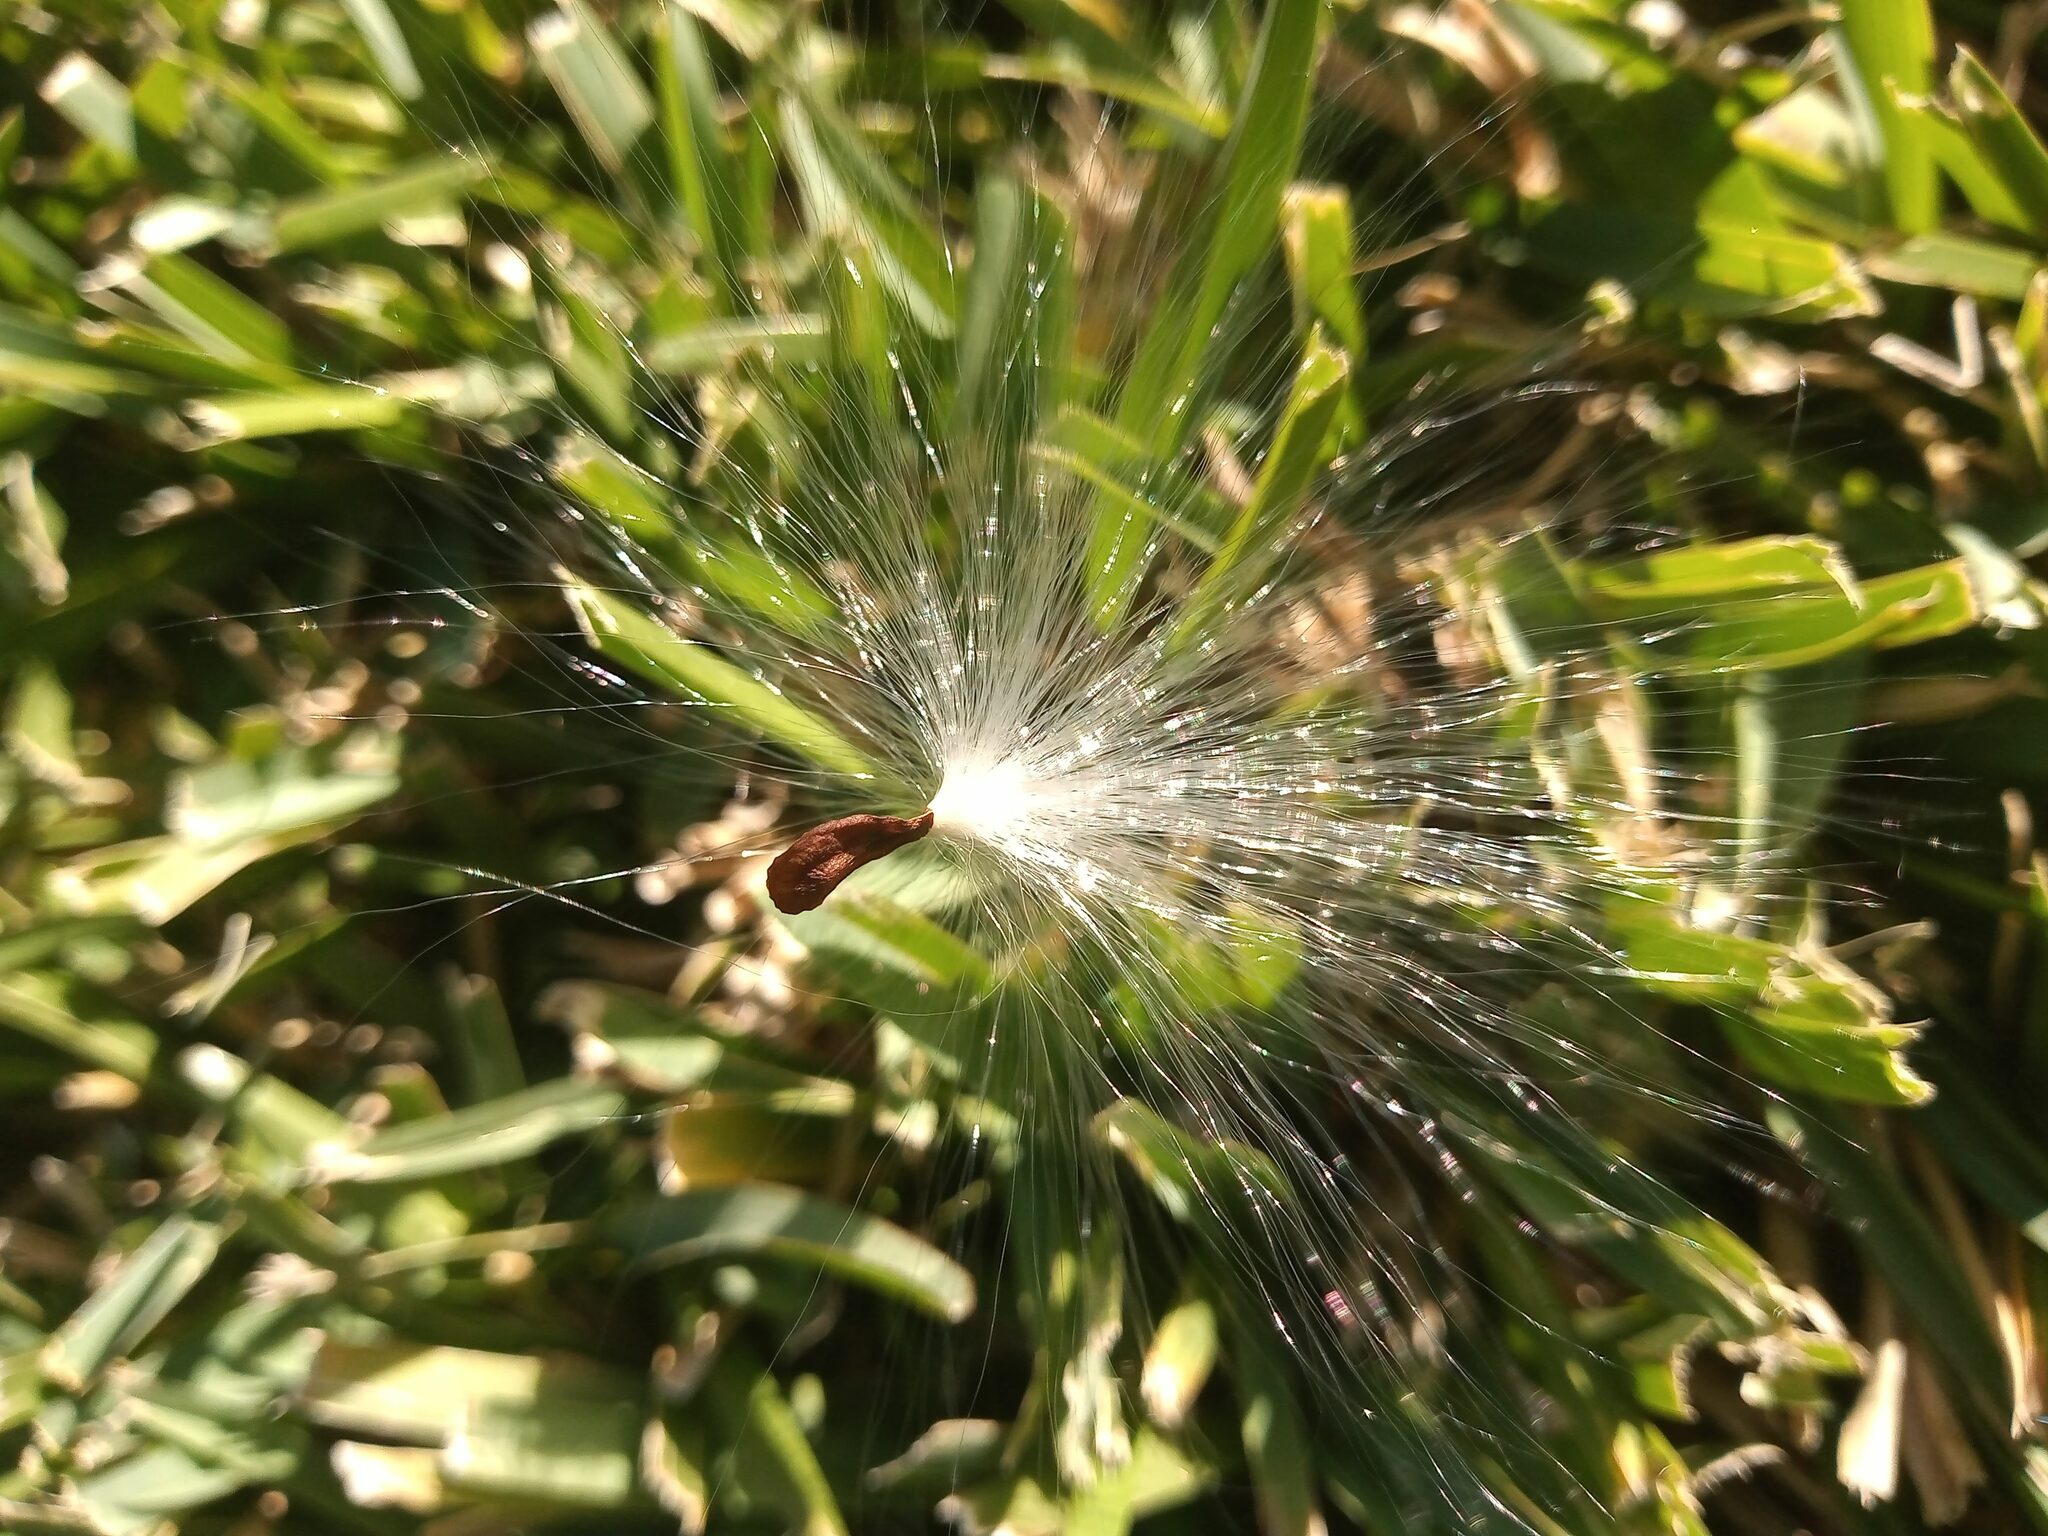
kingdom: Plantae
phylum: Tracheophyta
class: Magnoliopsida
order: Gentianales
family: Apocynaceae
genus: Asclepias
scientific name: Asclepias curassavica
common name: Bloodflower
